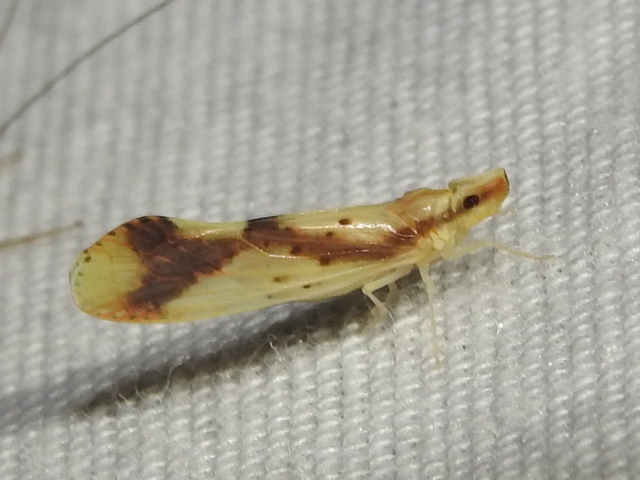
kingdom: Animalia
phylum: Arthropoda
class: Insecta
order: Hemiptera
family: Derbidae
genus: Otiocerus
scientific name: Otiocerus reaumurii
